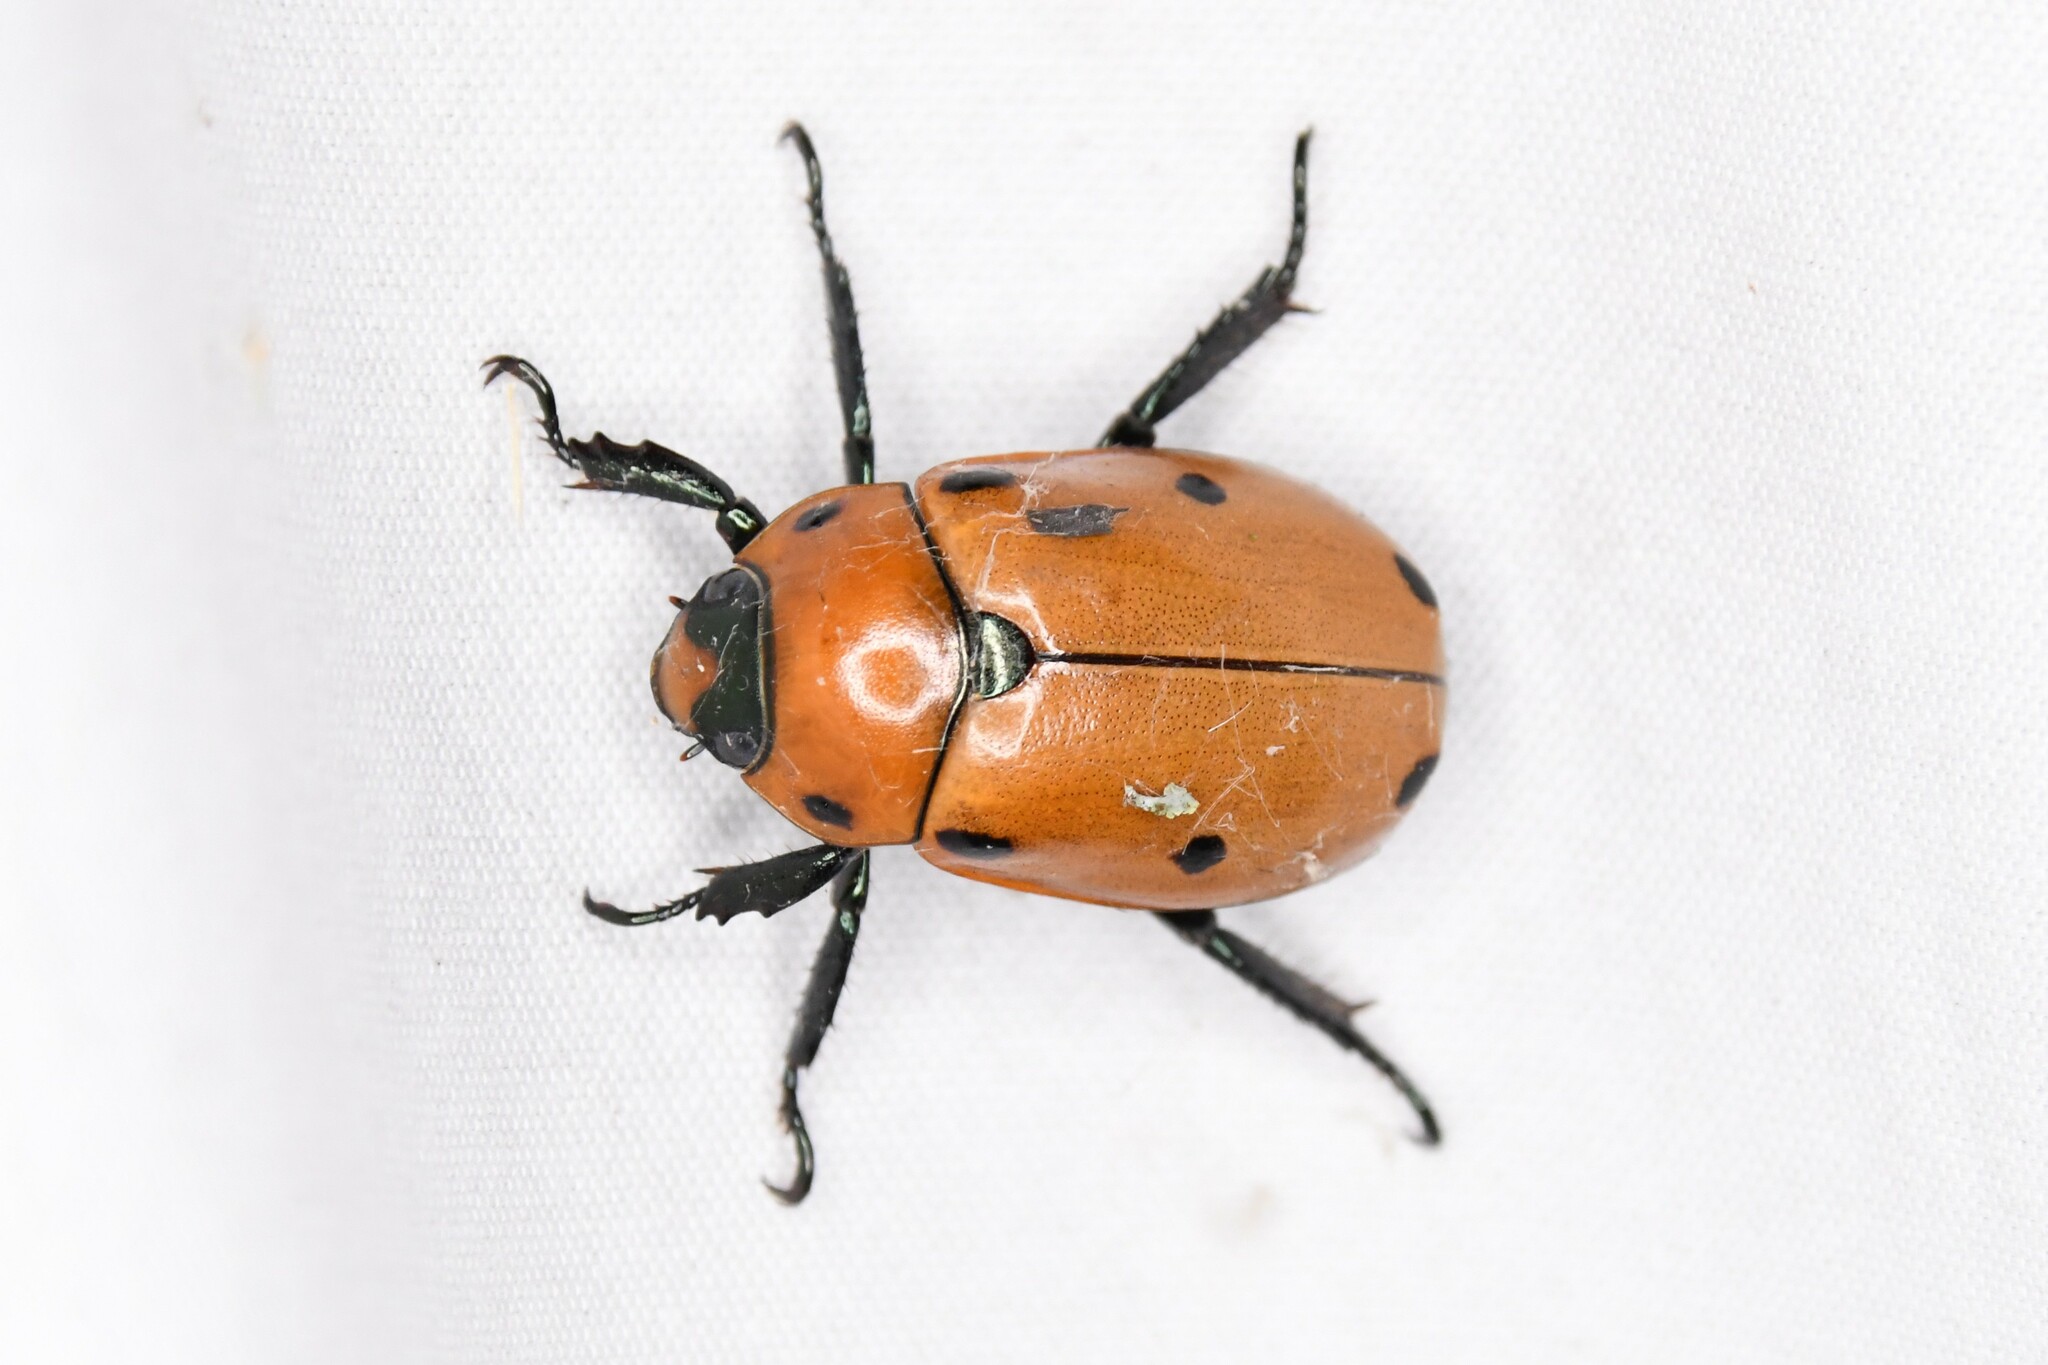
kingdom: Animalia
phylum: Arthropoda
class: Insecta
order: Coleoptera
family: Scarabaeidae
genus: Pelidnota
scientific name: Pelidnota punctata
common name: Grapevine beetle
